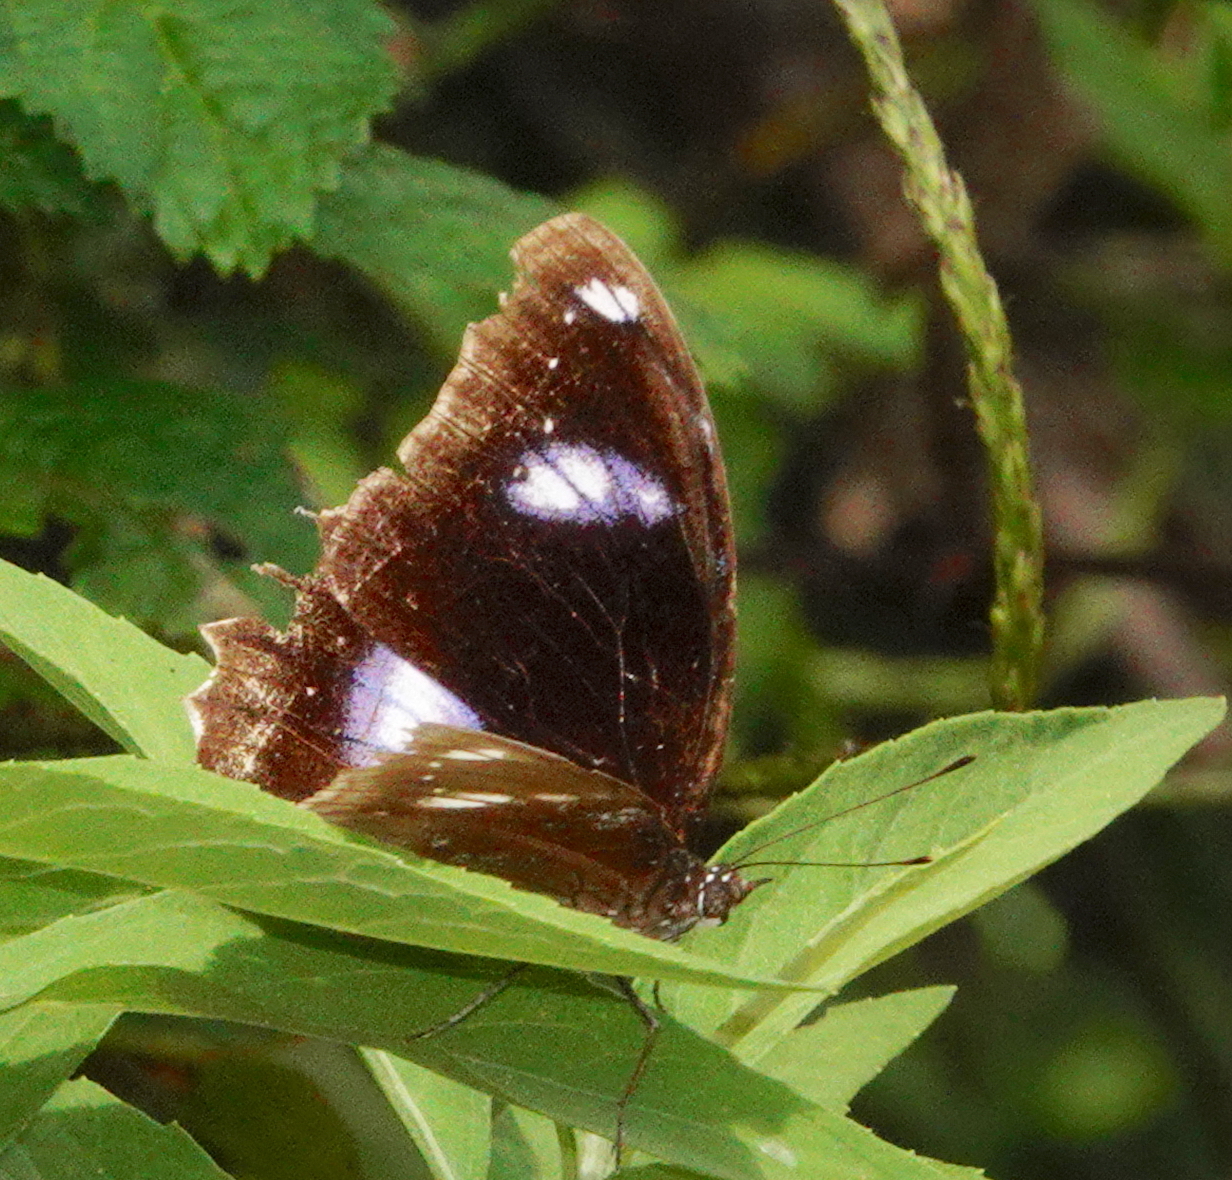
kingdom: Animalia
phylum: Arthropoda
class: Insecta
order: Lepidoptera
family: Nymphalidae
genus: Hypolimnas
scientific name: Hypolimnas bolina
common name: Great eggfly
